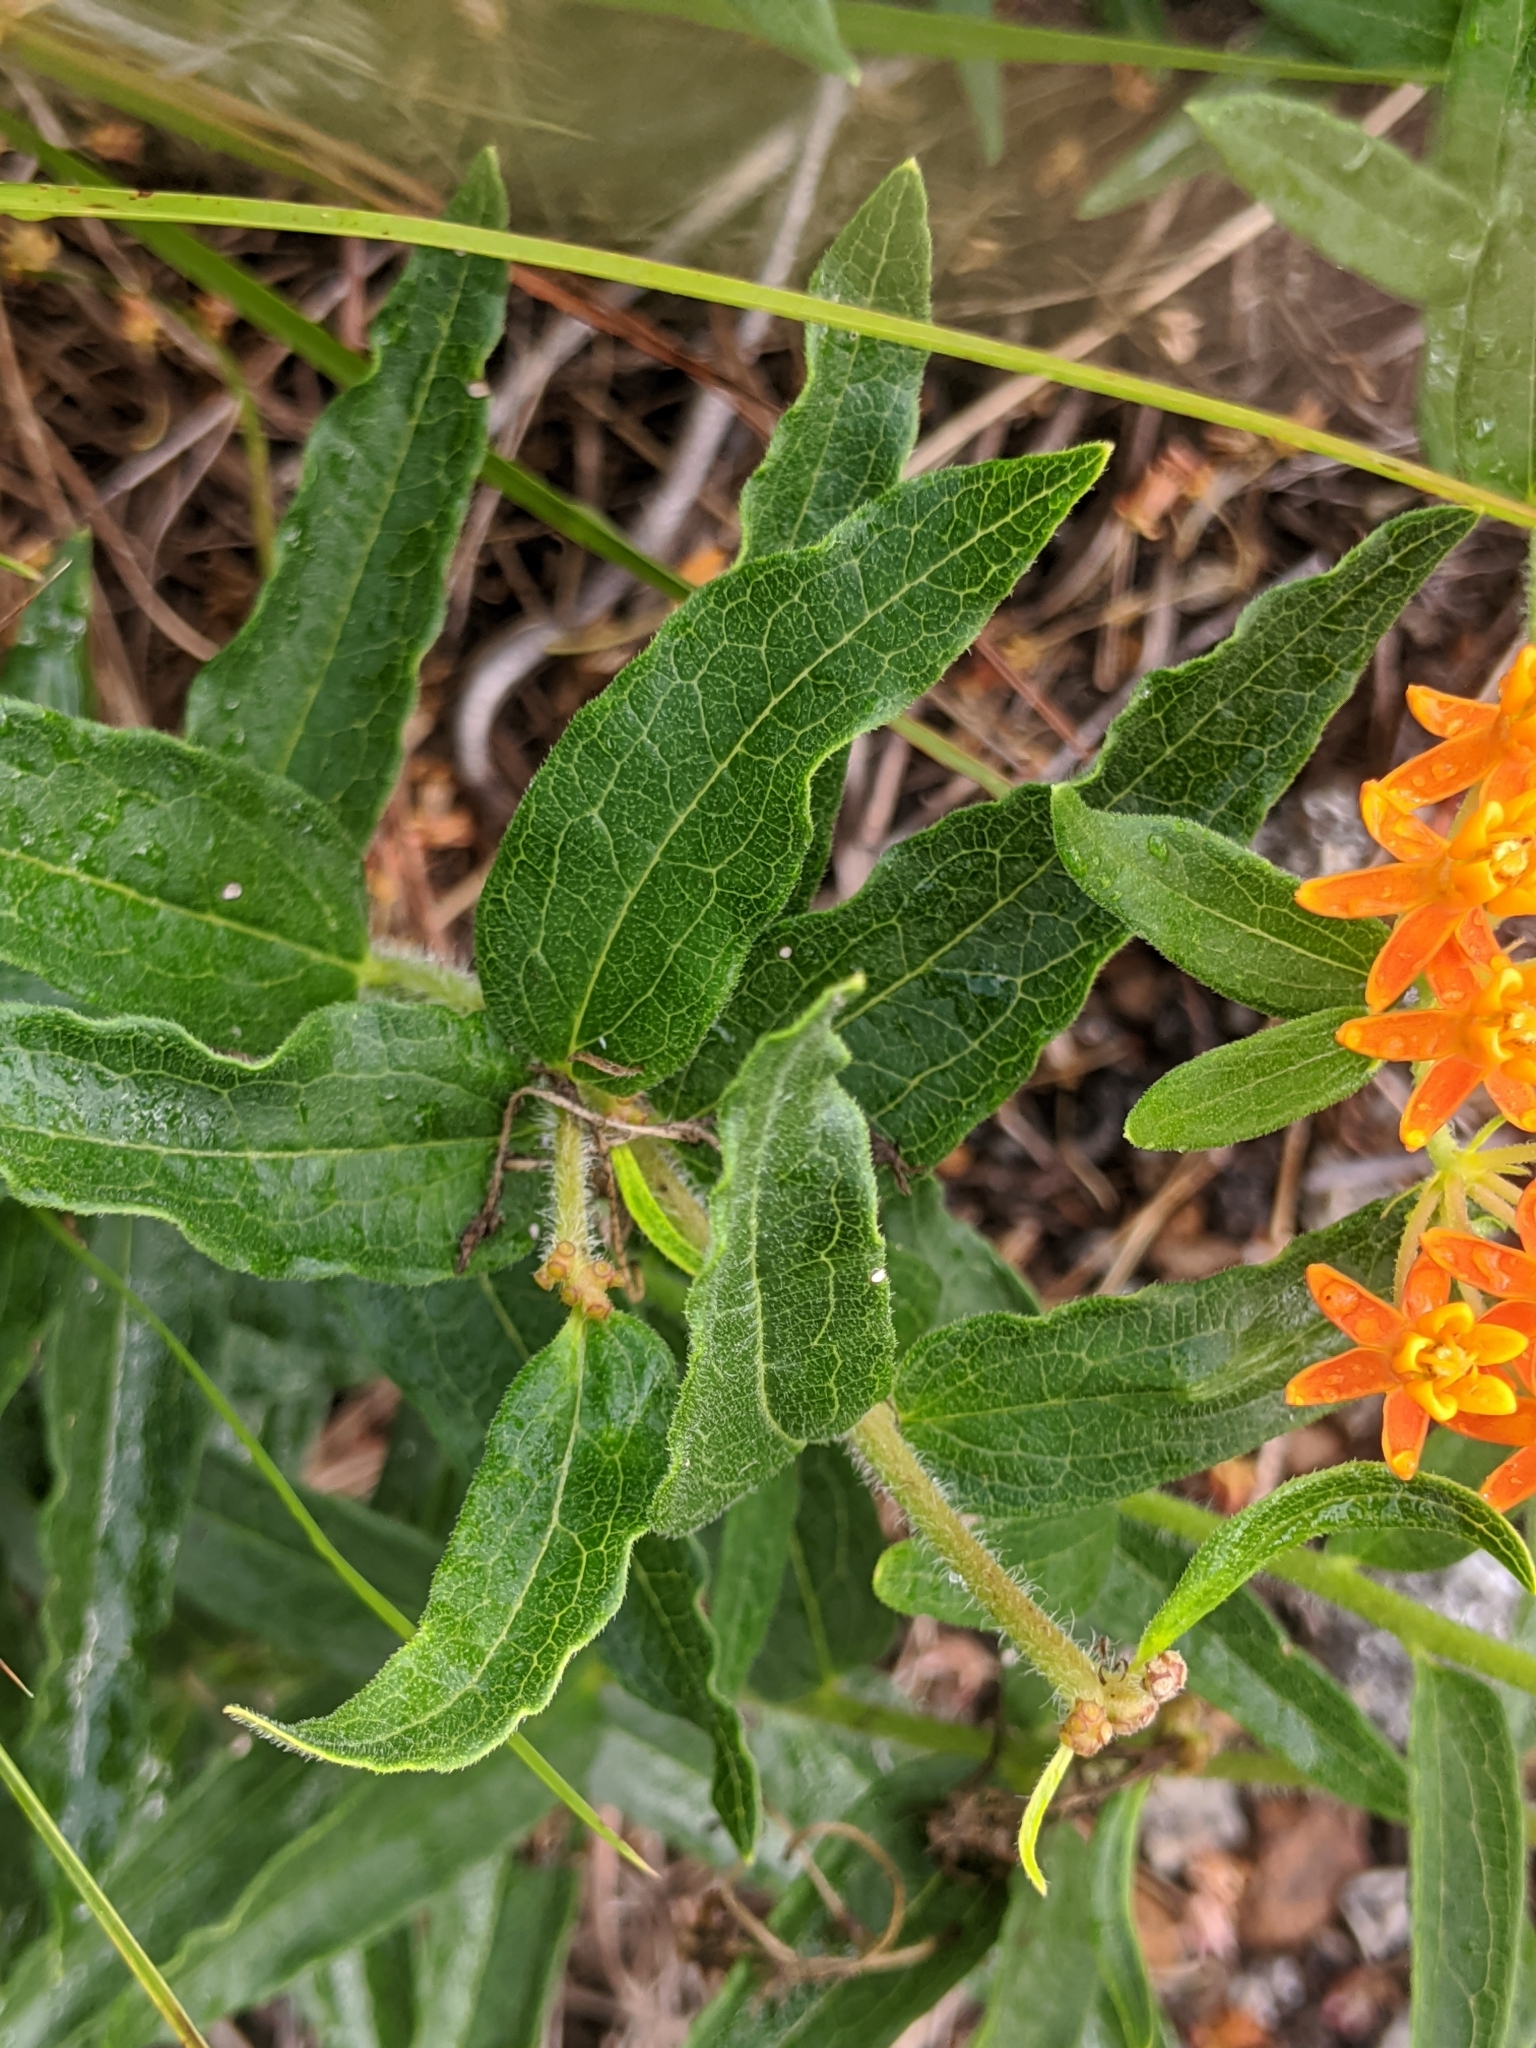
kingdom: Plantae
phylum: Tracheophyta
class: Magnoliopsida
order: Gentianales
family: Apocynaceae
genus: Asclepias
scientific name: Asclepias tuberosa
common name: Butterfly milkweed
